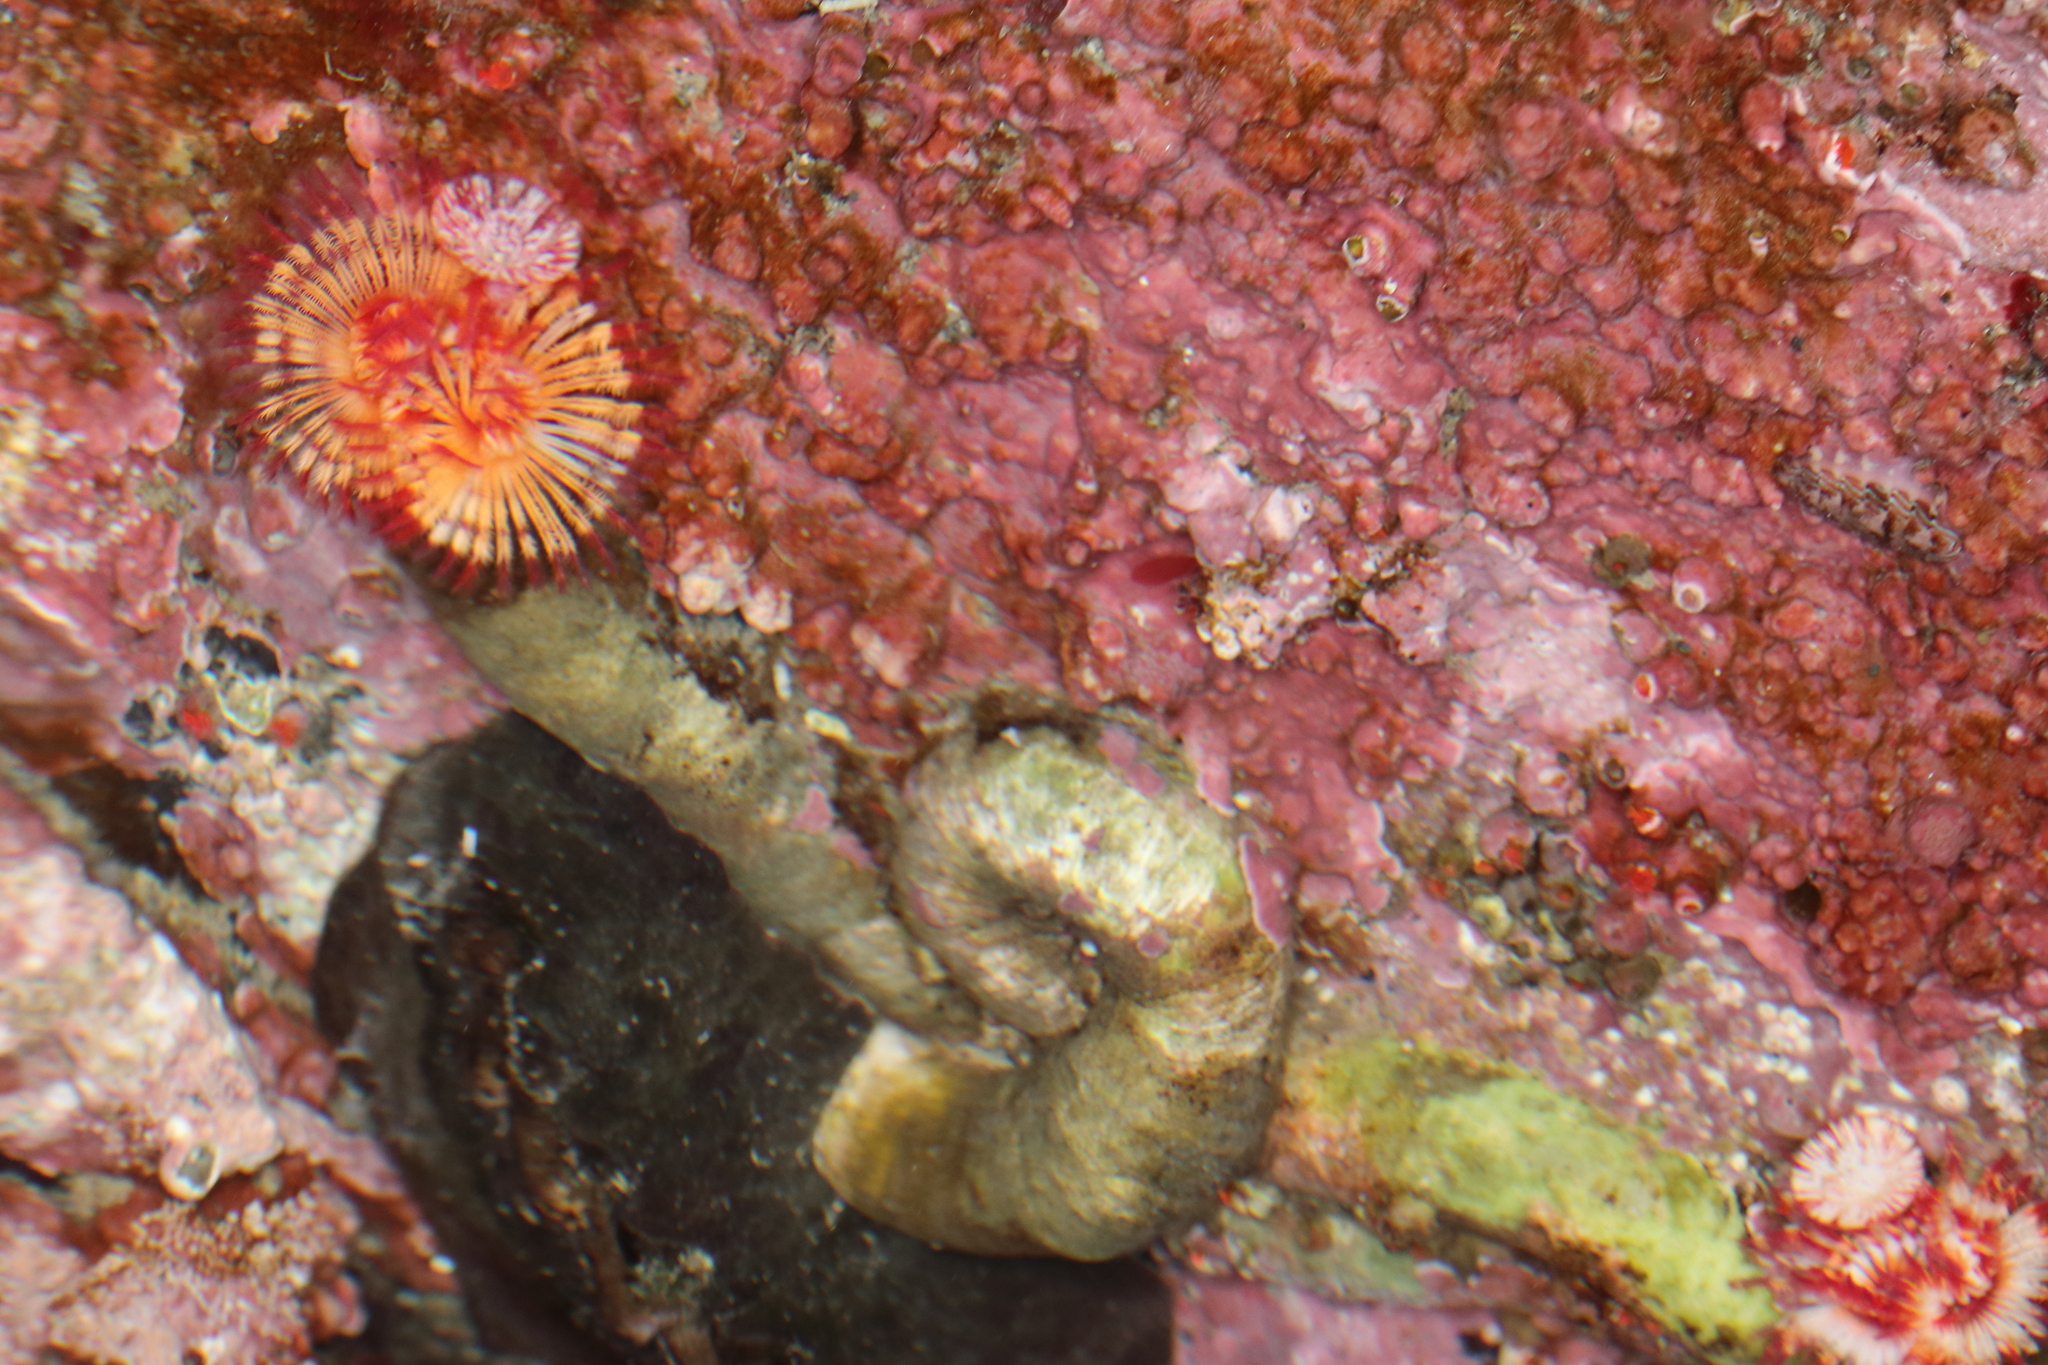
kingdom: Animalia
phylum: Annelida
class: Polychaeta
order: Sabellida
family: Serpulidae
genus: Serpula
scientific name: Serpula columbiana
